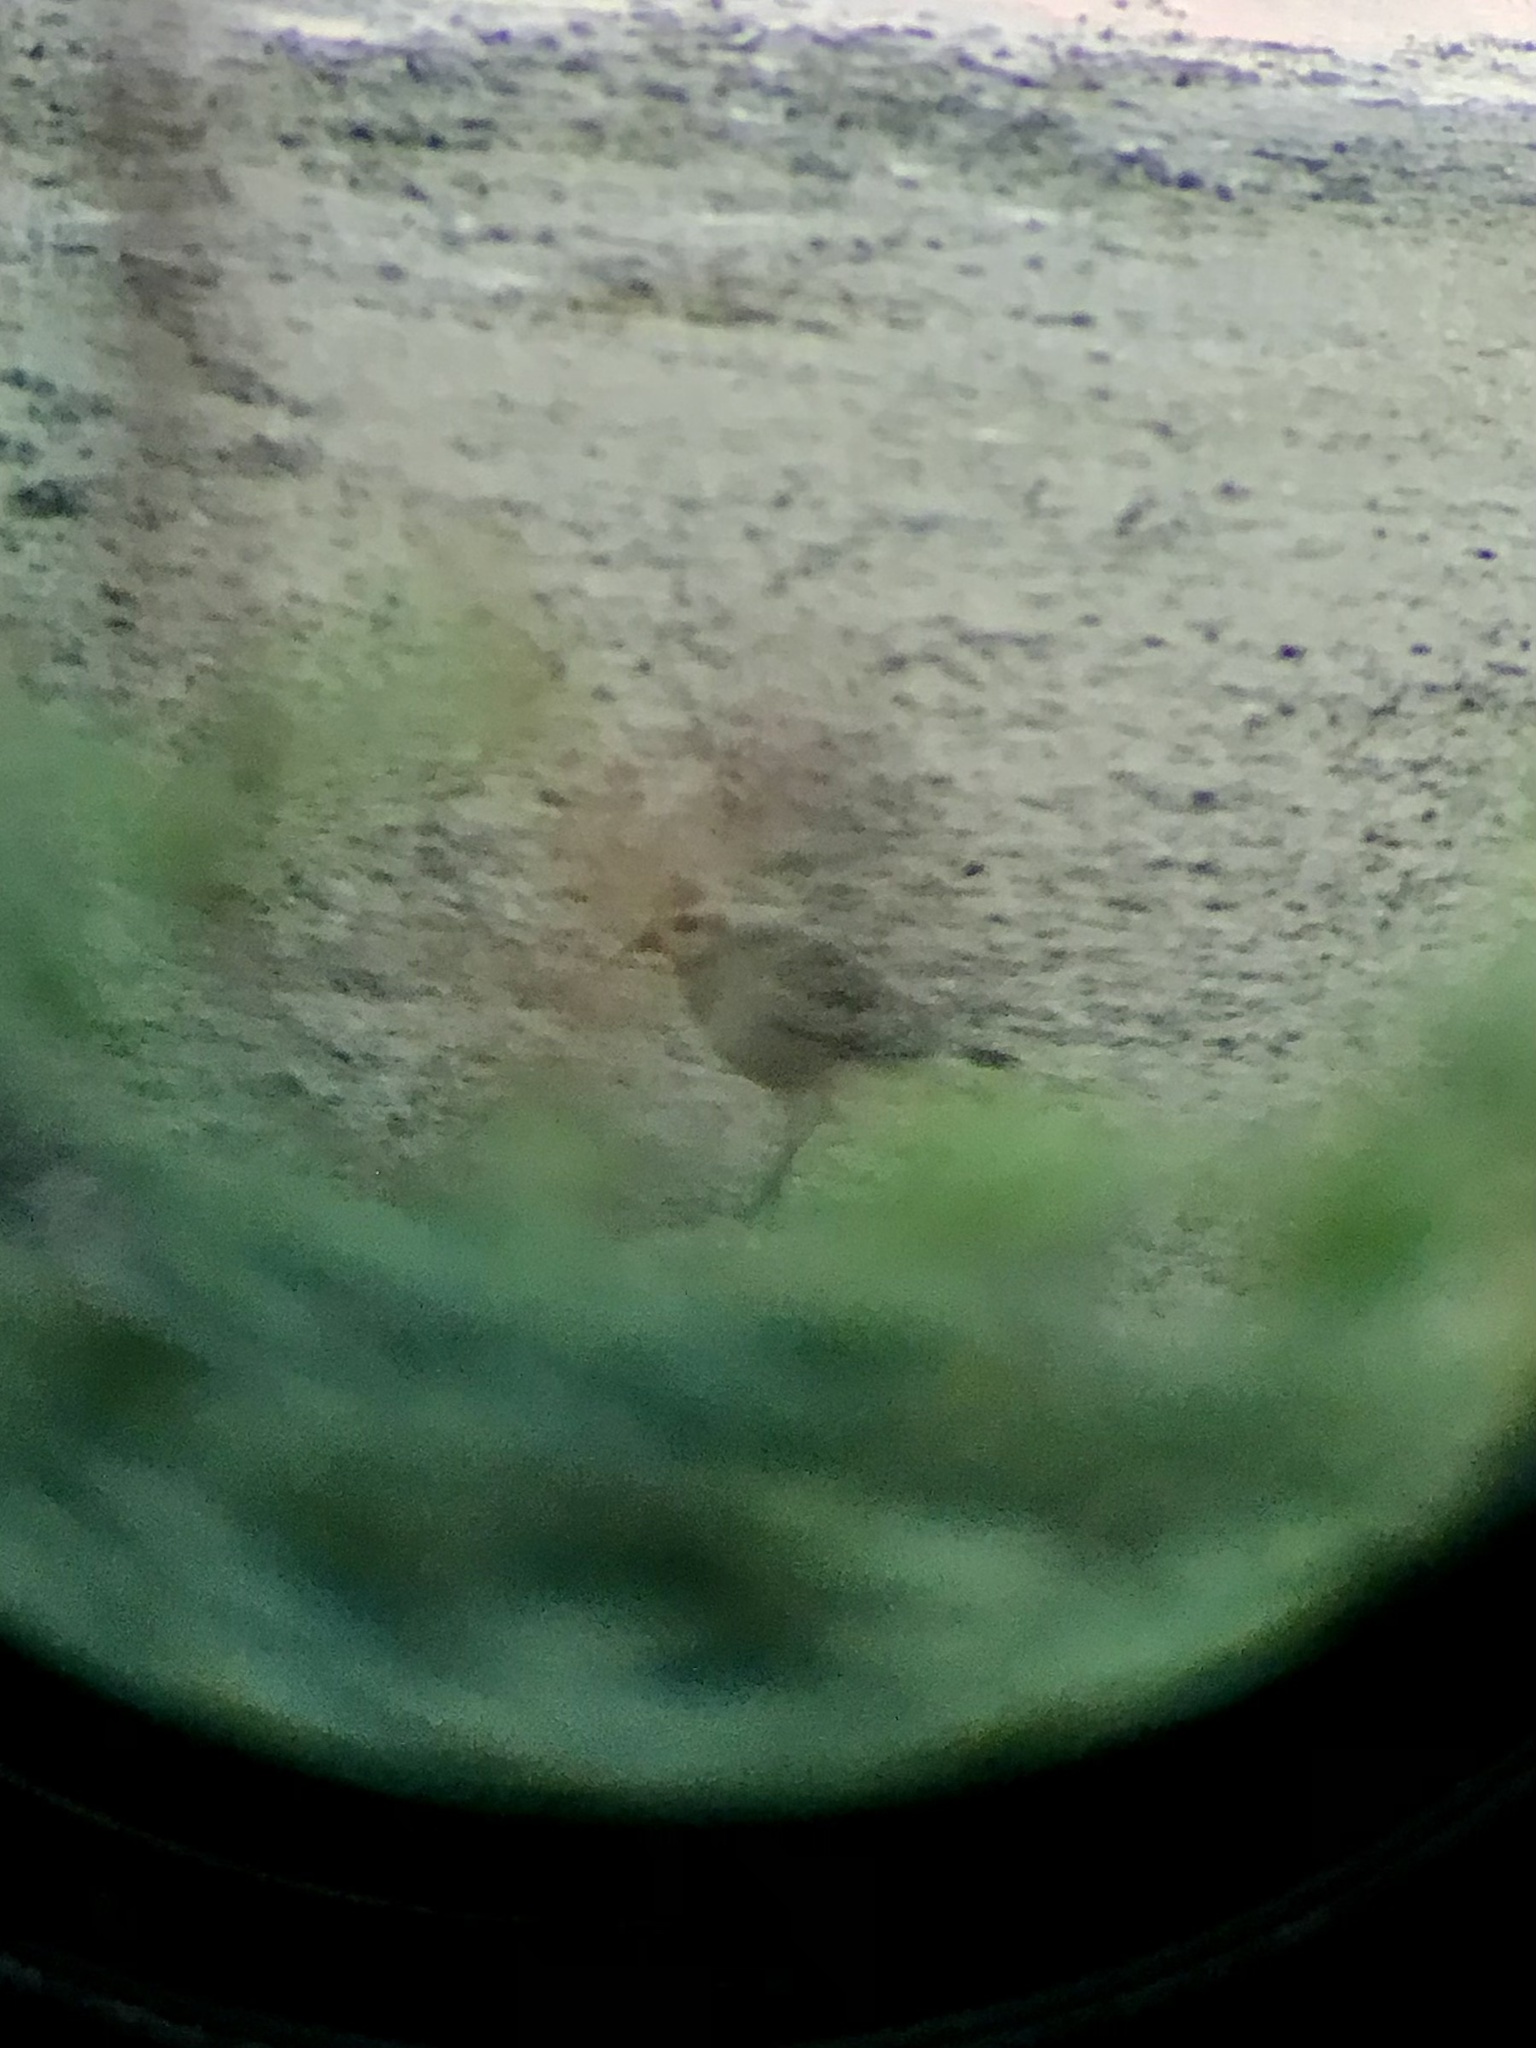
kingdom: Animalia
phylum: Chordata
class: Aves
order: Charadriiformes
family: Charadriidae
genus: Pluvialis
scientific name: Pluvialis dominica
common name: American golden plover
